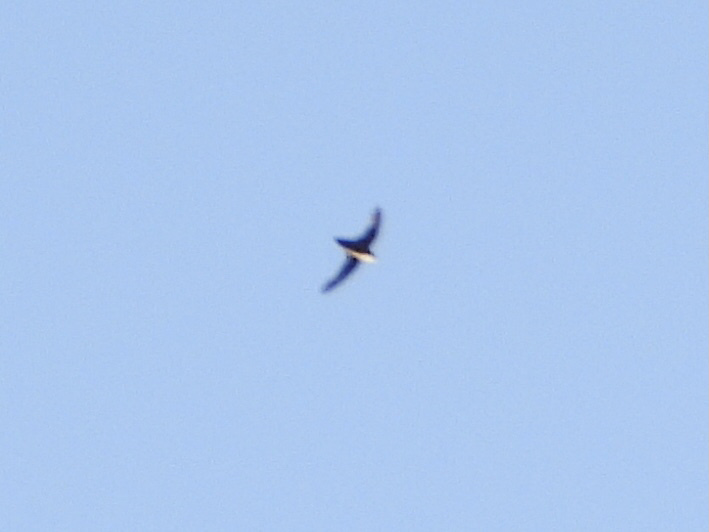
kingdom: Animalia
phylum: Chordata
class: Aves
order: Apodiformes
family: Apodidae
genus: Chaetura
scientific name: Chaetura vauxi
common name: Vaux's swift
